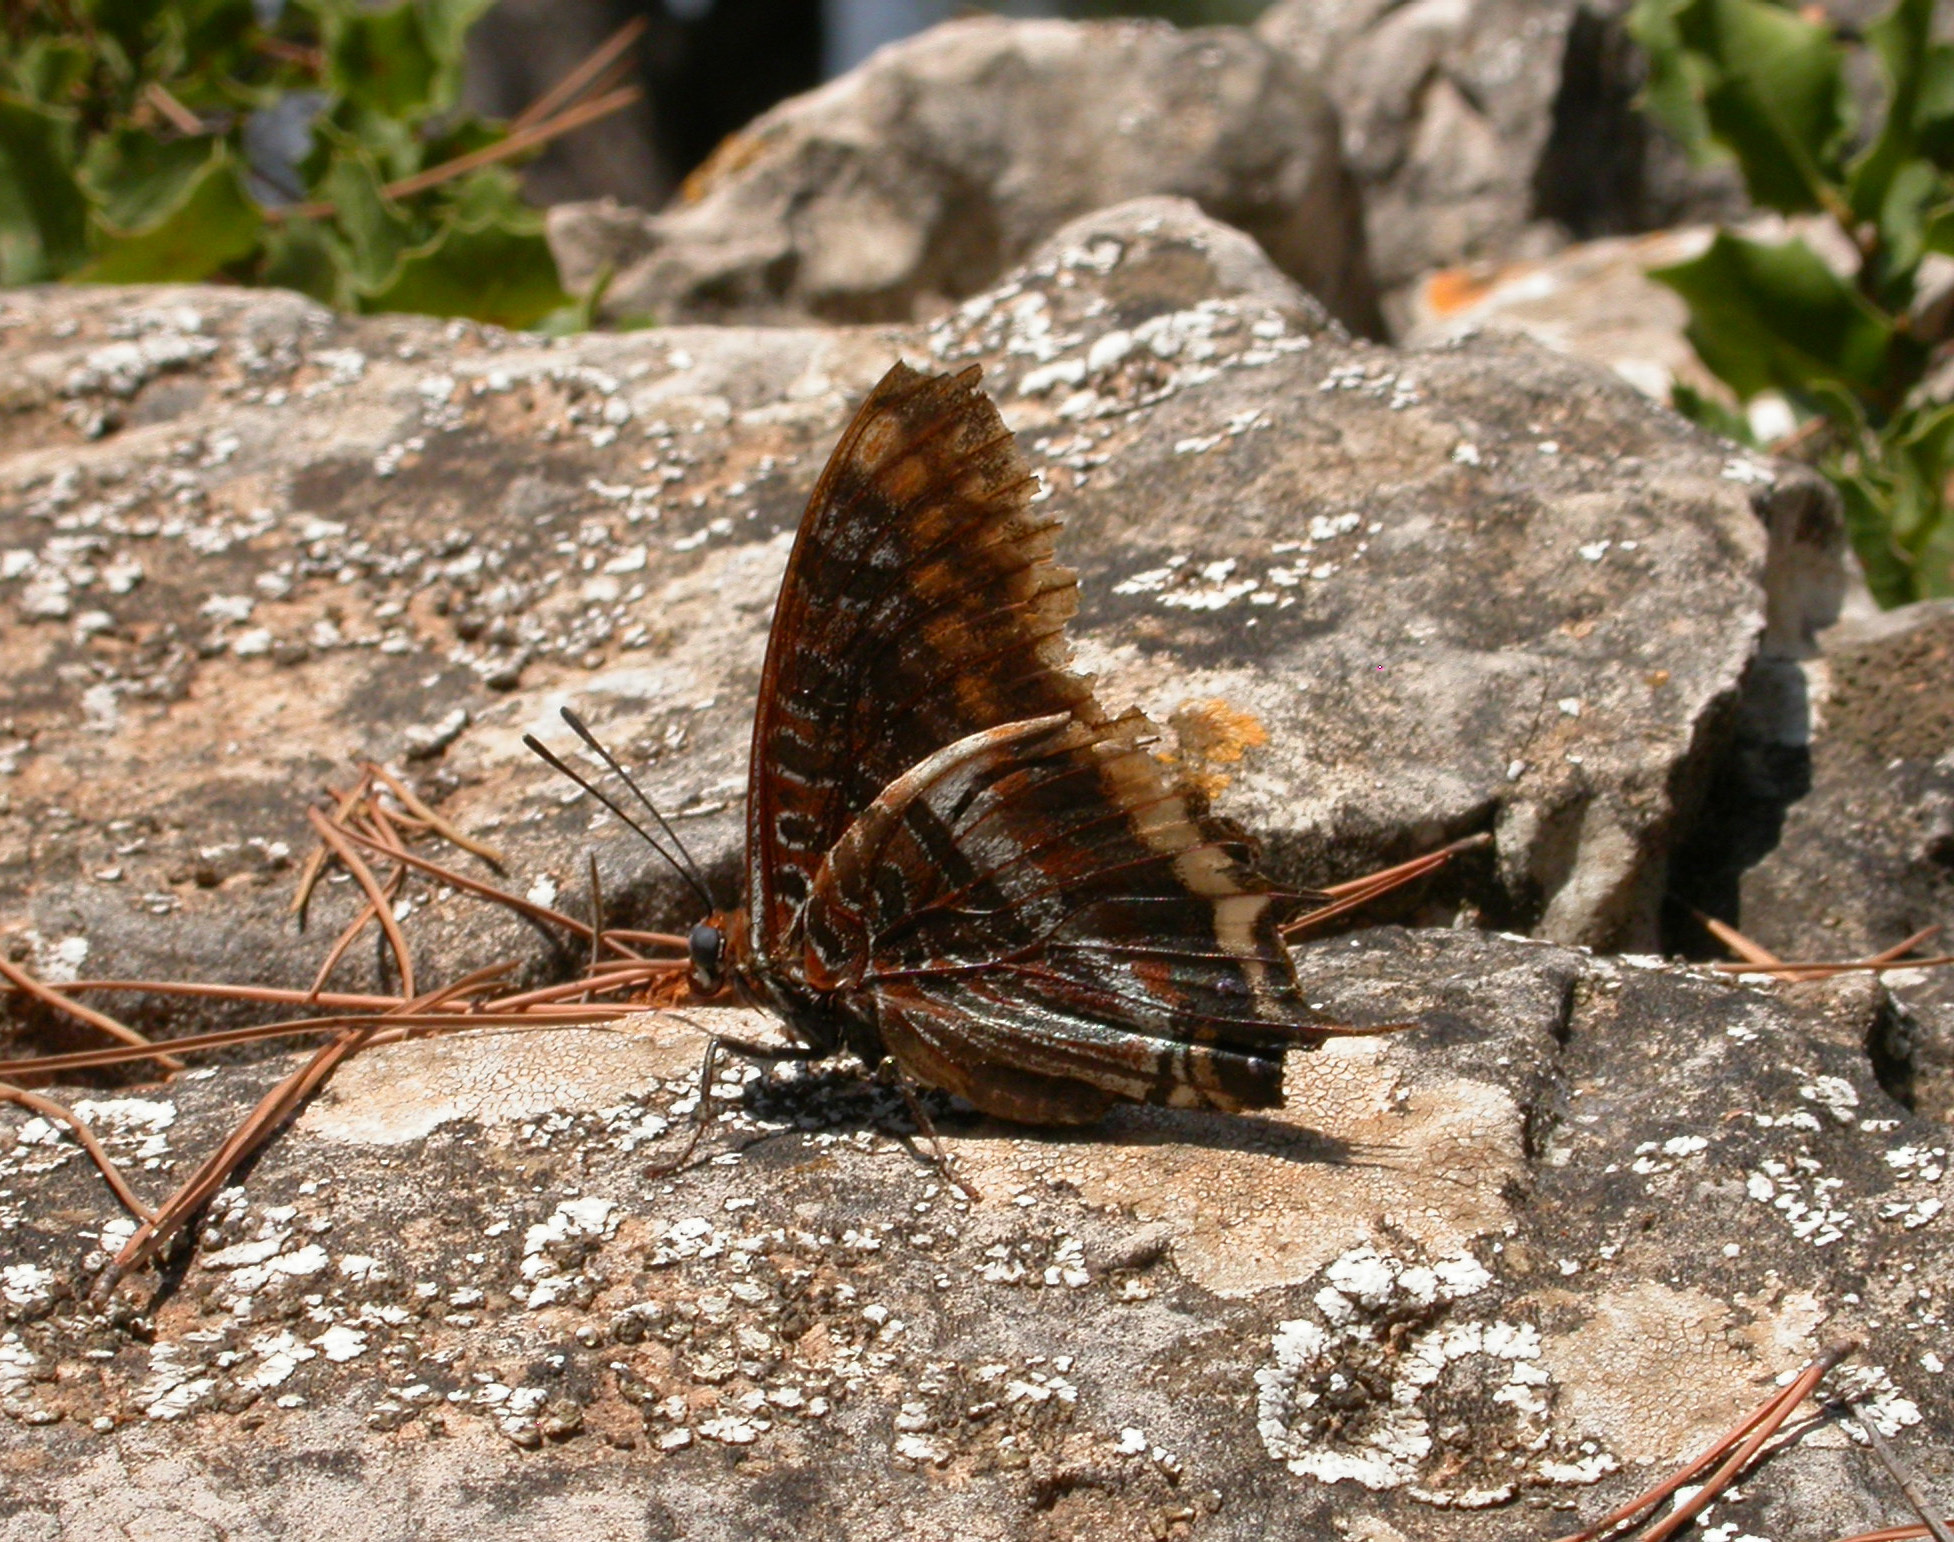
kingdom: Animalia
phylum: Arthropoda
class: Insecta
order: Lepidoptera
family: Nymphalidae
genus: Charaxes
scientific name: Charaxes jasius
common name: Two tailed pasha
